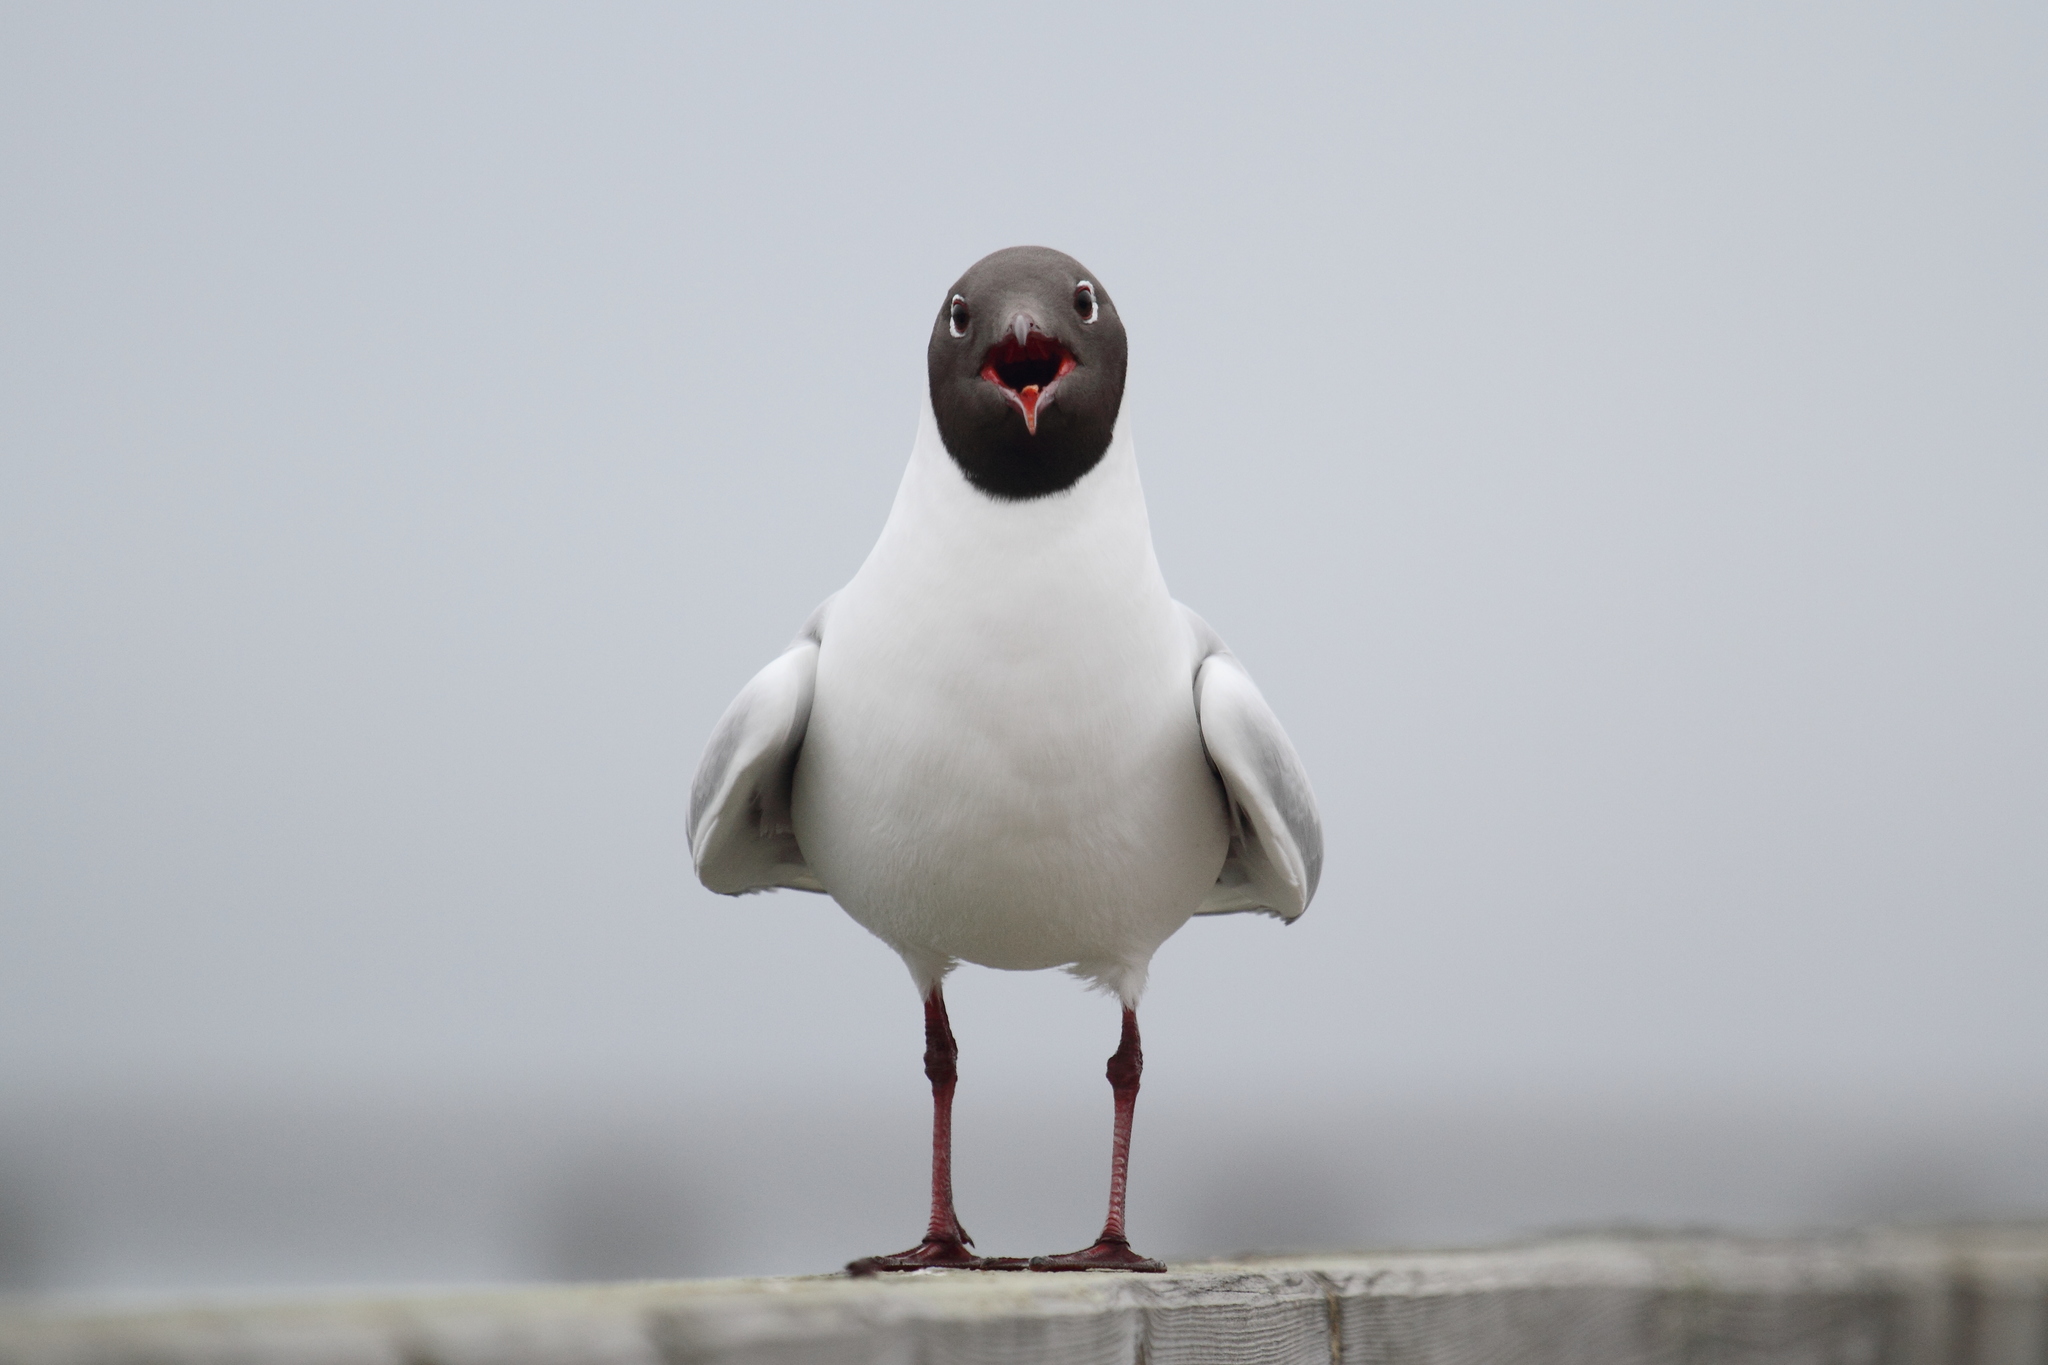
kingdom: Animalia
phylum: Chordata
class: Aves
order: Charadriiformes
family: Laridae
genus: Chroicocephalus
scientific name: Chroicocephalus ridibundus
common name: Black-headed gull
